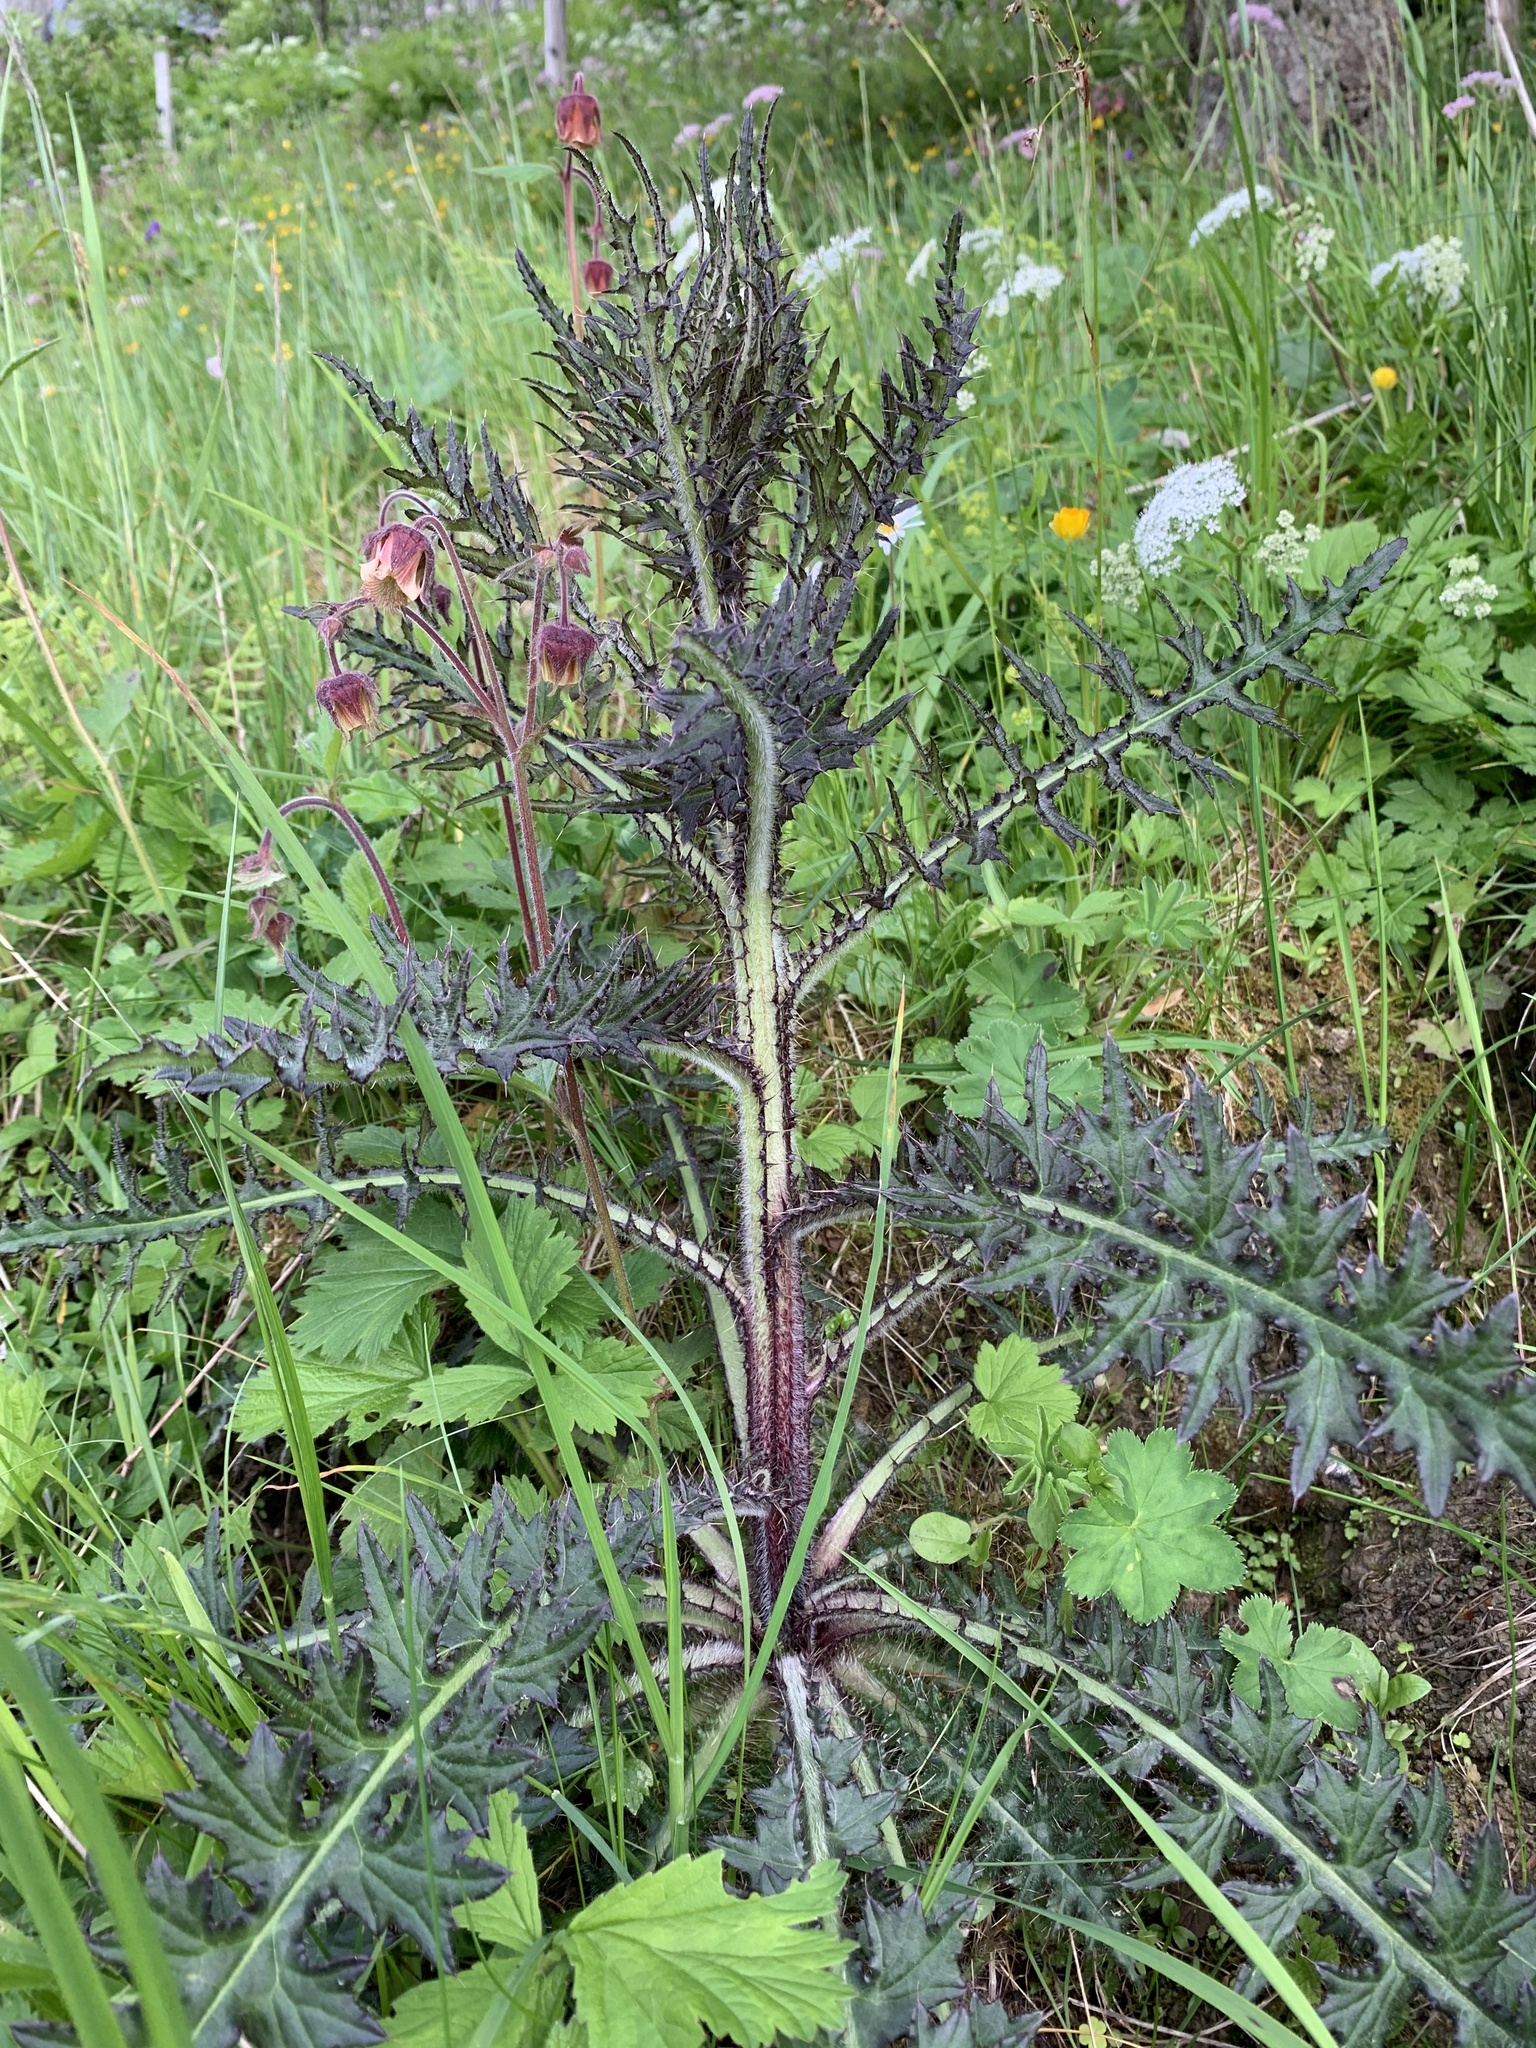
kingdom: Plantae
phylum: Tracheophyta
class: Magnoliopsida
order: Asterales
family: Asteraceae
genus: Cirsium
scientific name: Cirsium palustre
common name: Marsh thistle
